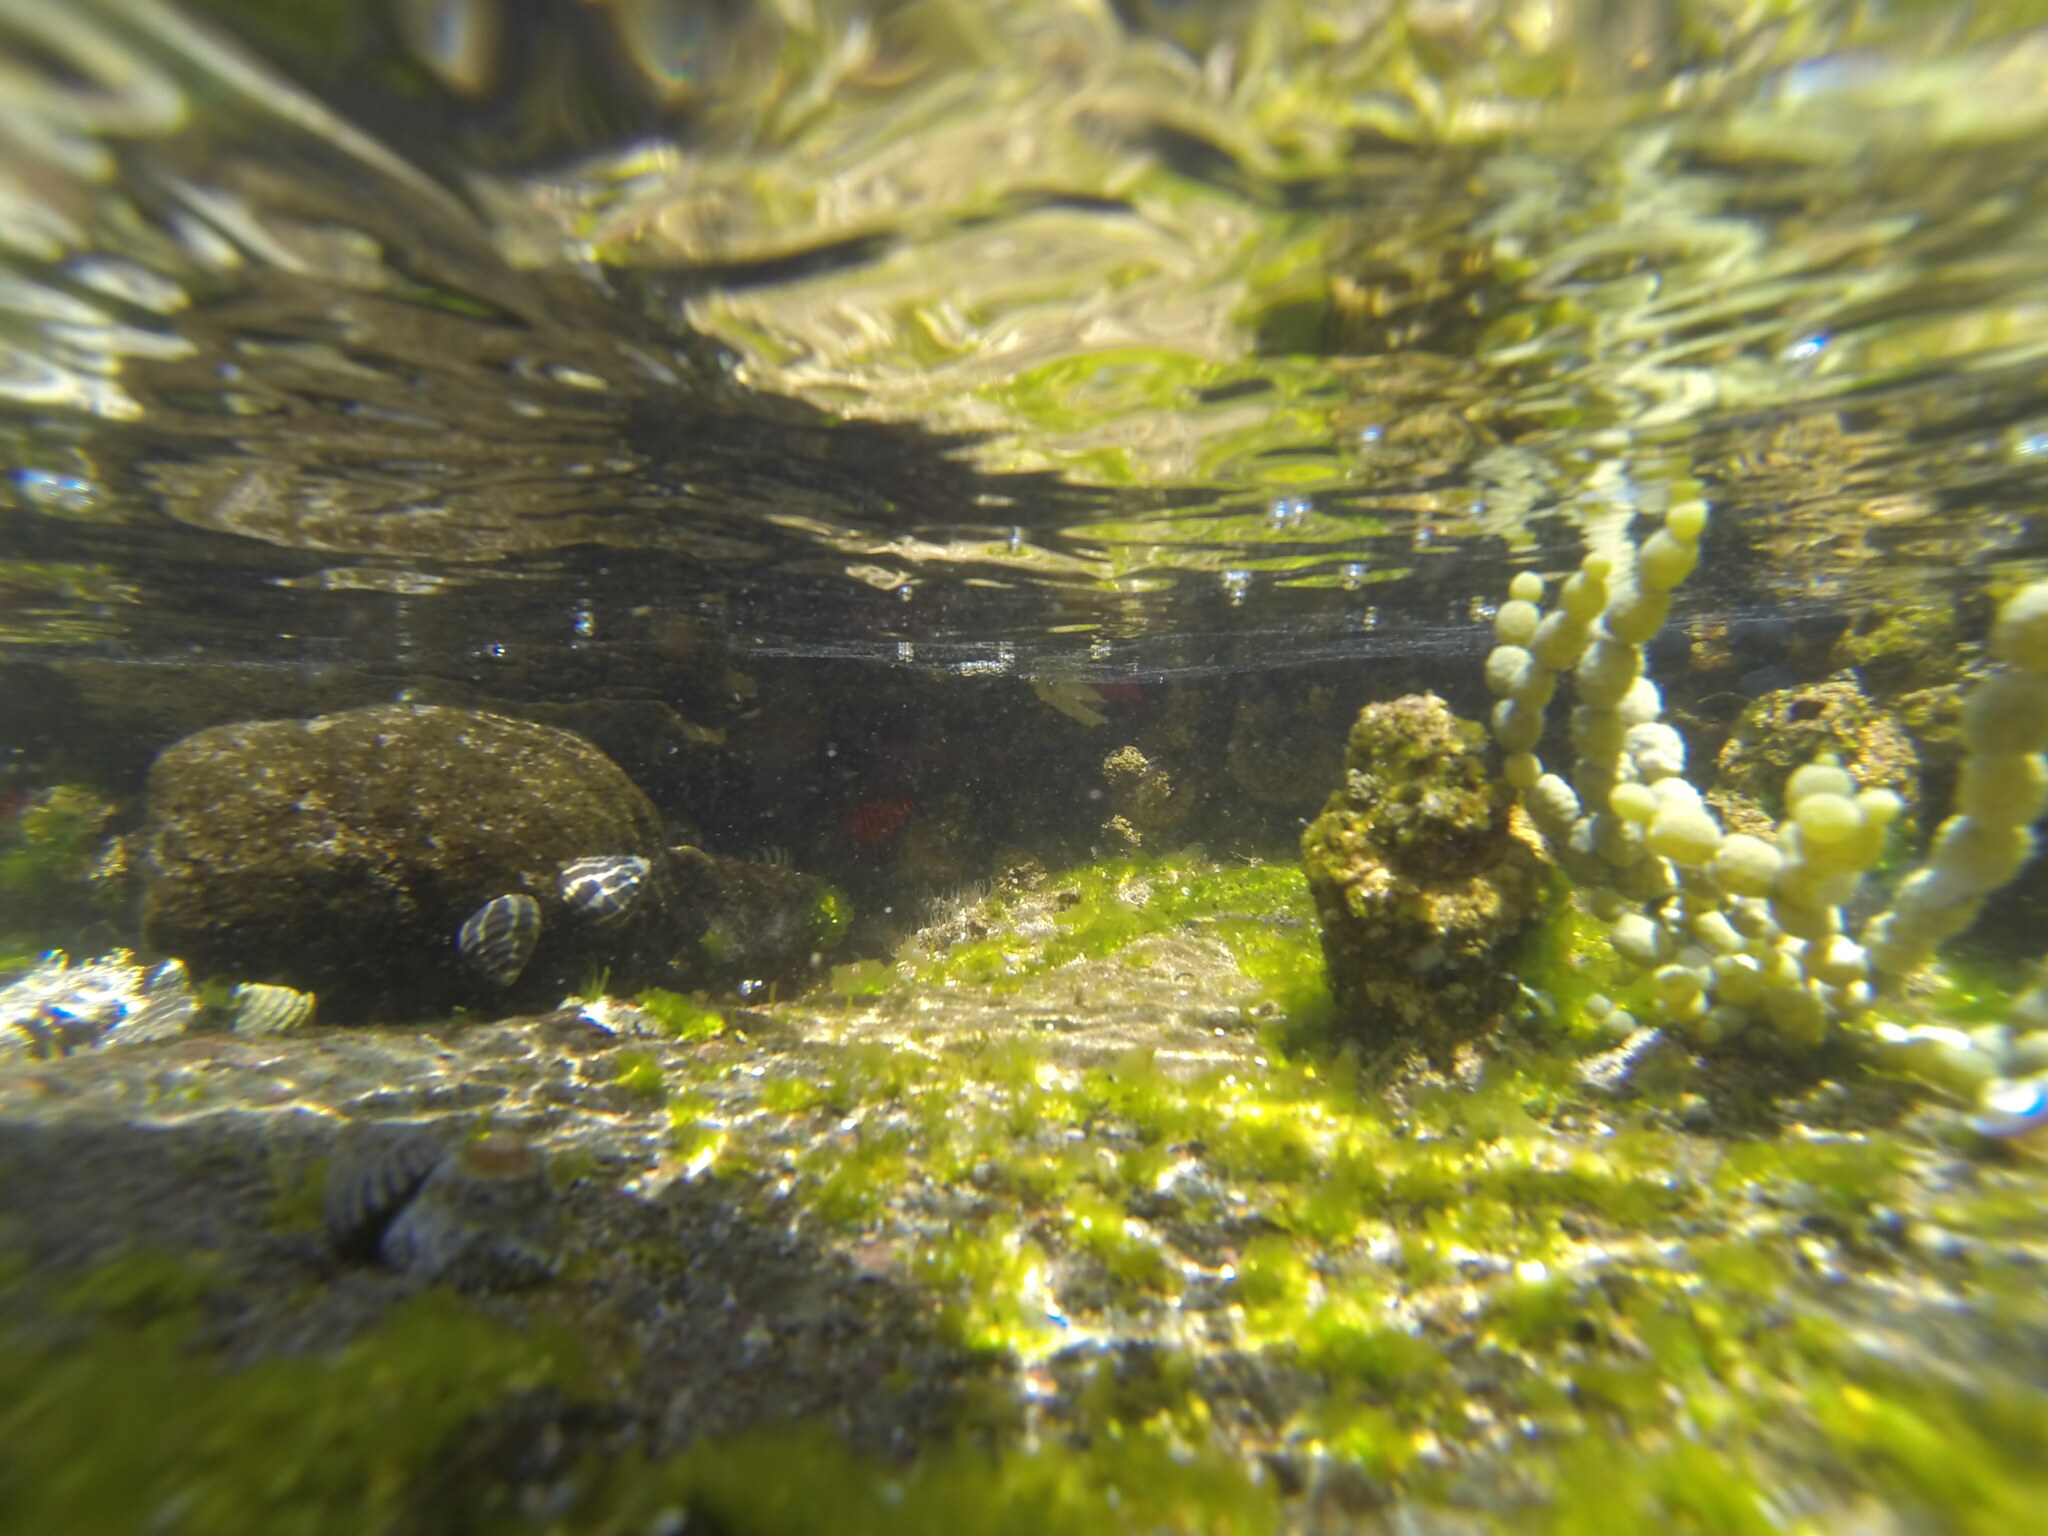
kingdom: Animalia
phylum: Cnidaria
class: Anthozoa
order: Actiniaria
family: Actiniidae
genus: Actinia
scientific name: Actinia tenebrosa
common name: Waratah anemone
